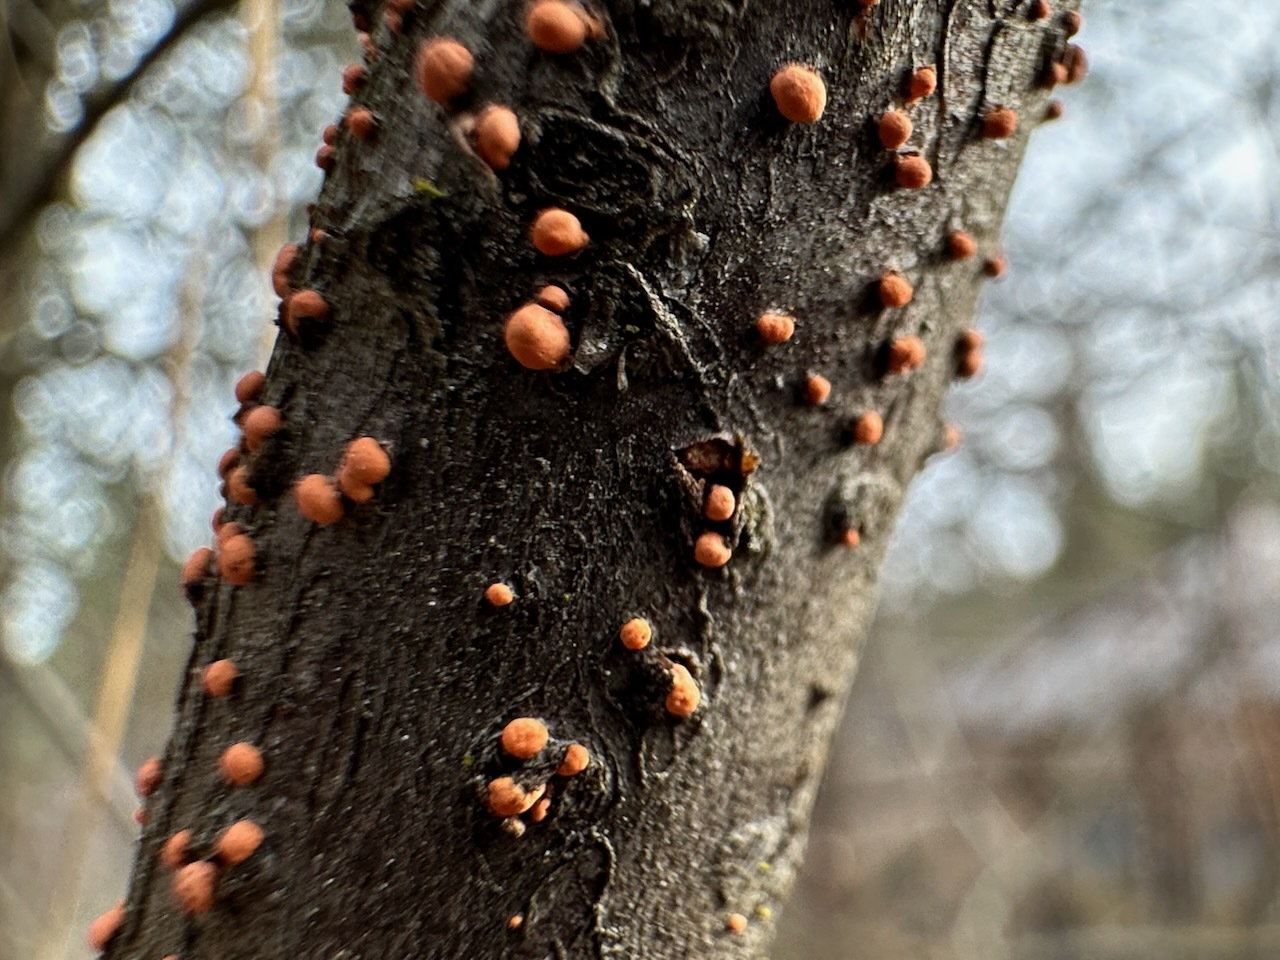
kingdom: Fungi
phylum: Ascomycota
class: Sordariomycetes
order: Hypocreales
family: Nectriaceae
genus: Nectria
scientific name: Nectria cinnabarina
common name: Coral spot
